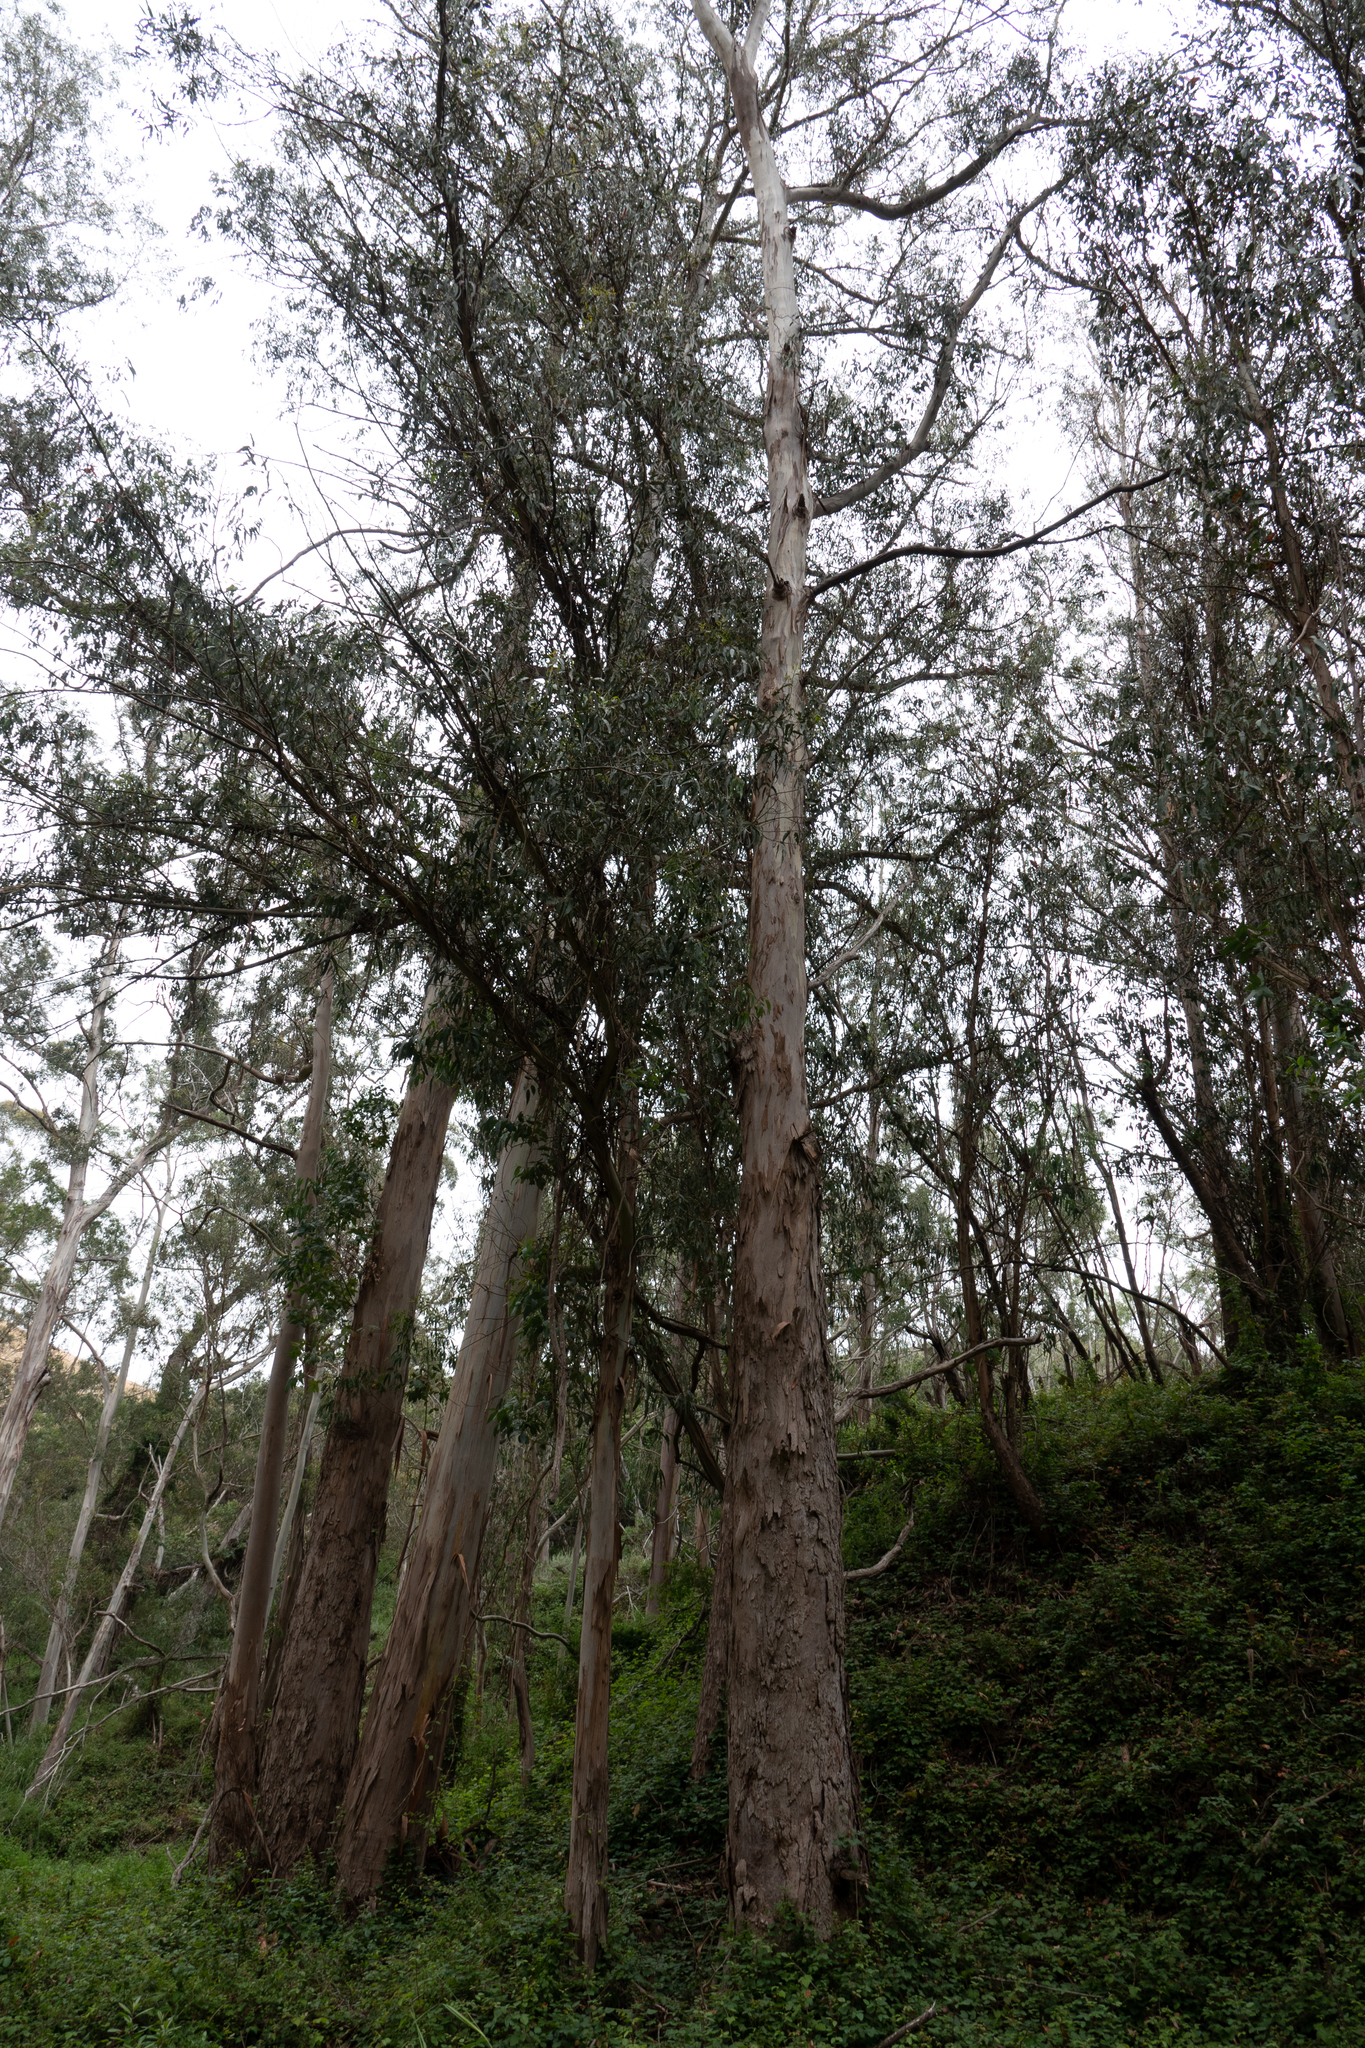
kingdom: Plantae
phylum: Tracheophyta
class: Magnoliopsida
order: Myrtales
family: Myrtaceae
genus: Eucalyptus
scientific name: Eucalyptus globulus
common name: Southern blue-gum
